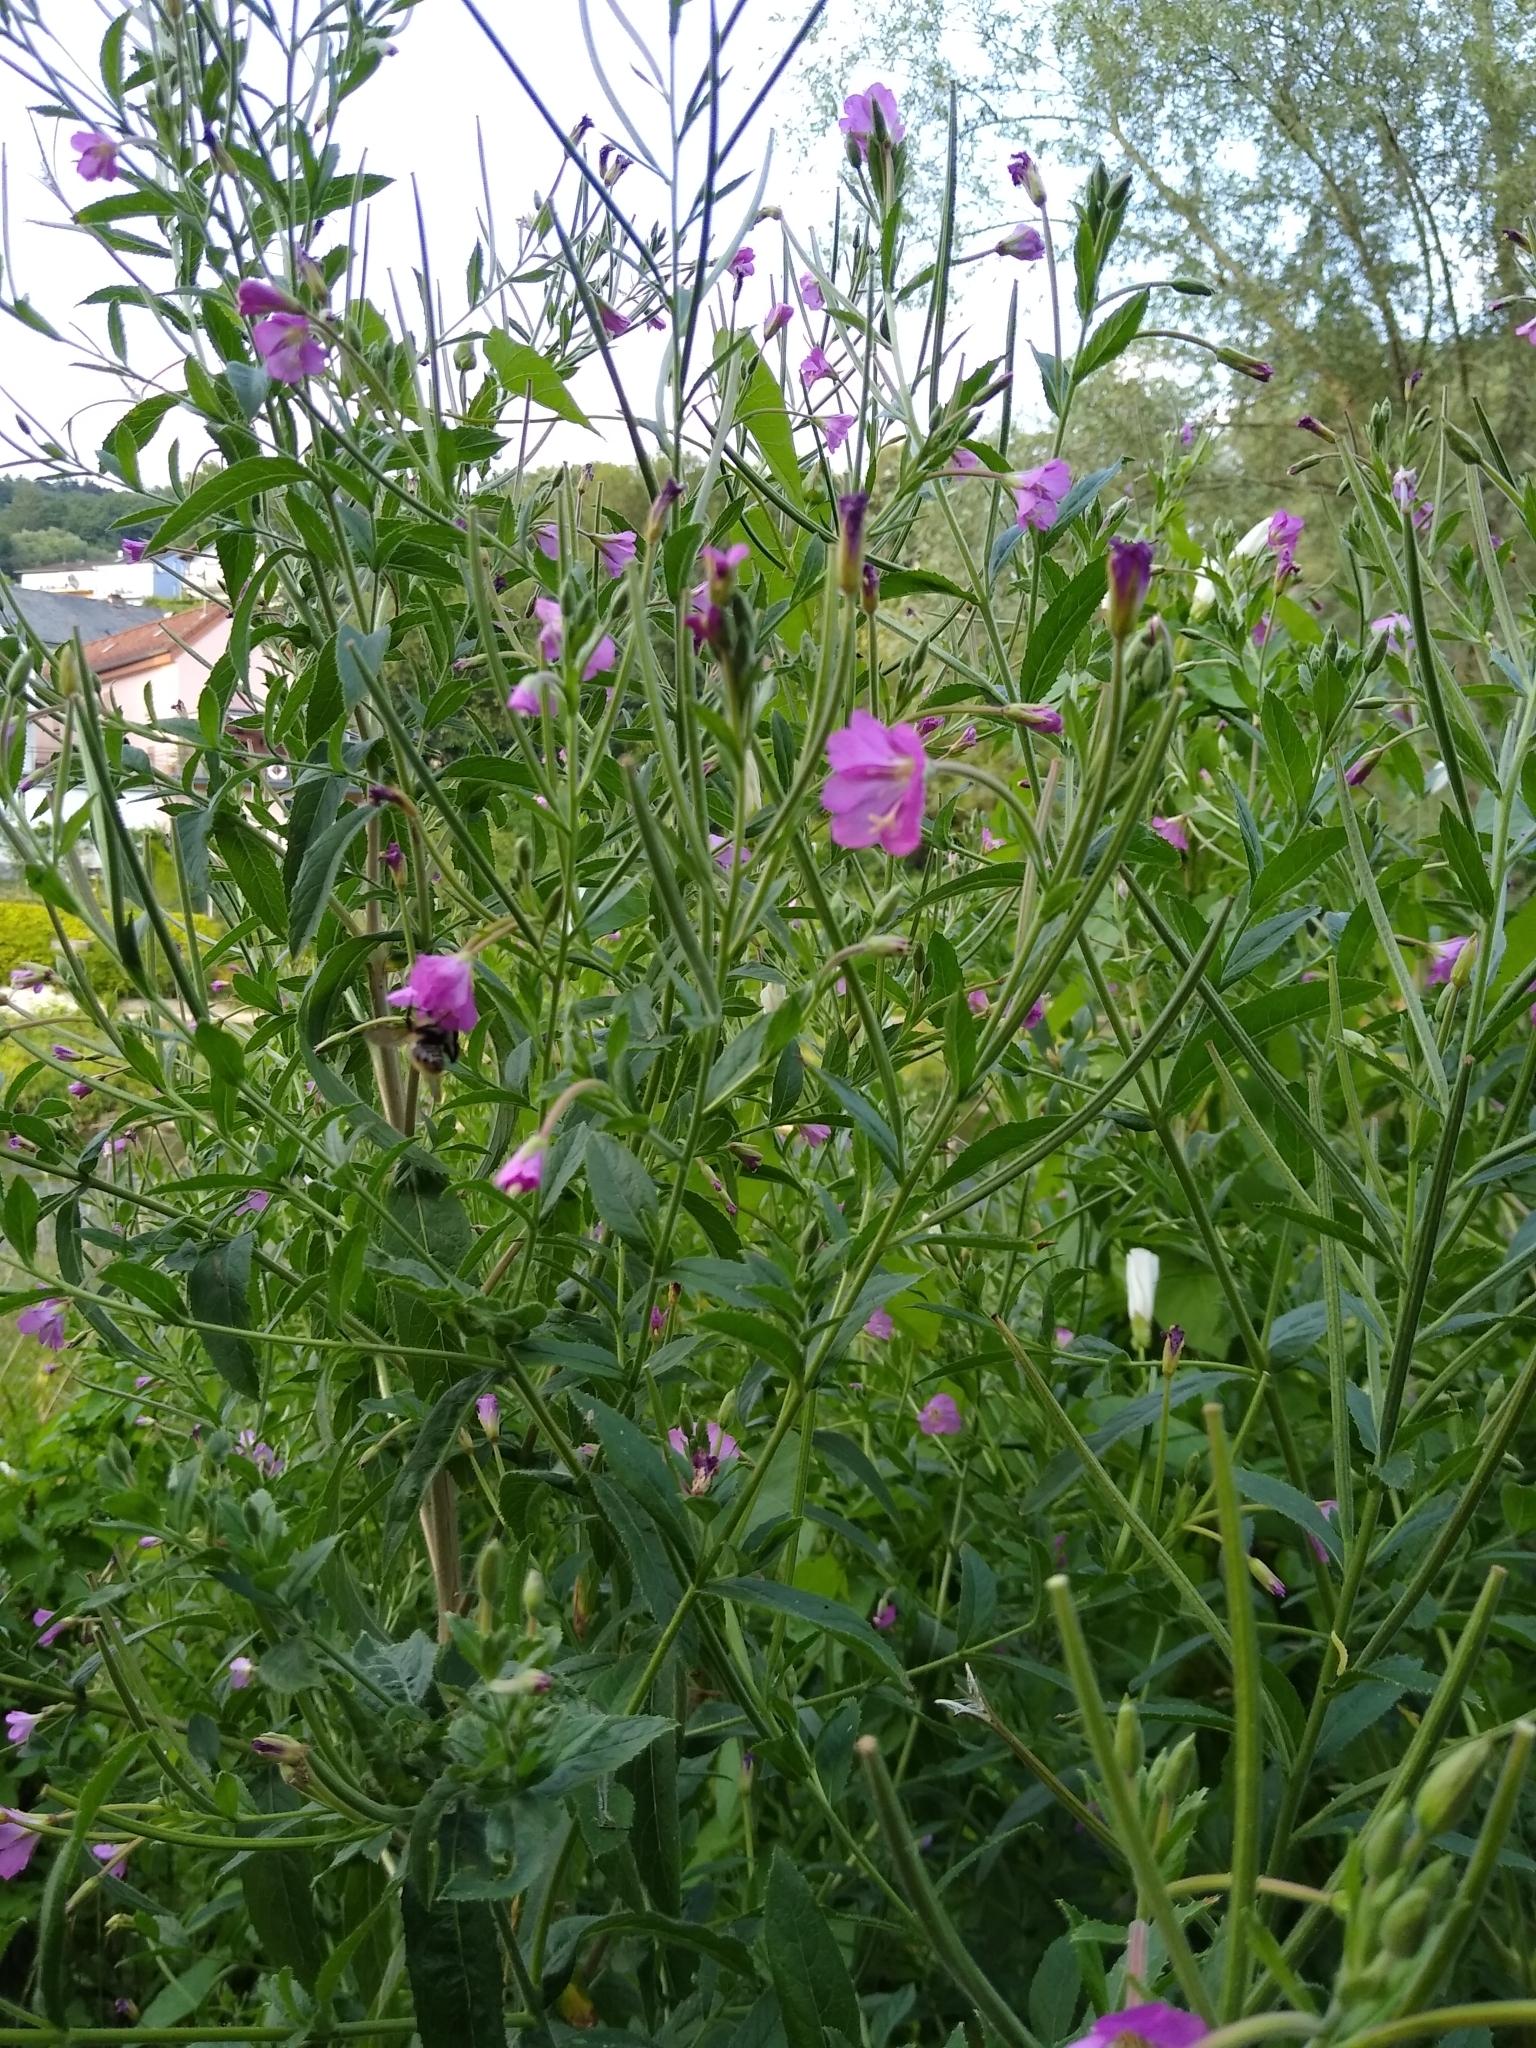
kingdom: Plantae
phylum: Tracheophyta
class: Magnoliopsida
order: Myrtales
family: Onagraceae
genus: Epilobium
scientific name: Epilobium hirsutum
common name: Great willowherb
